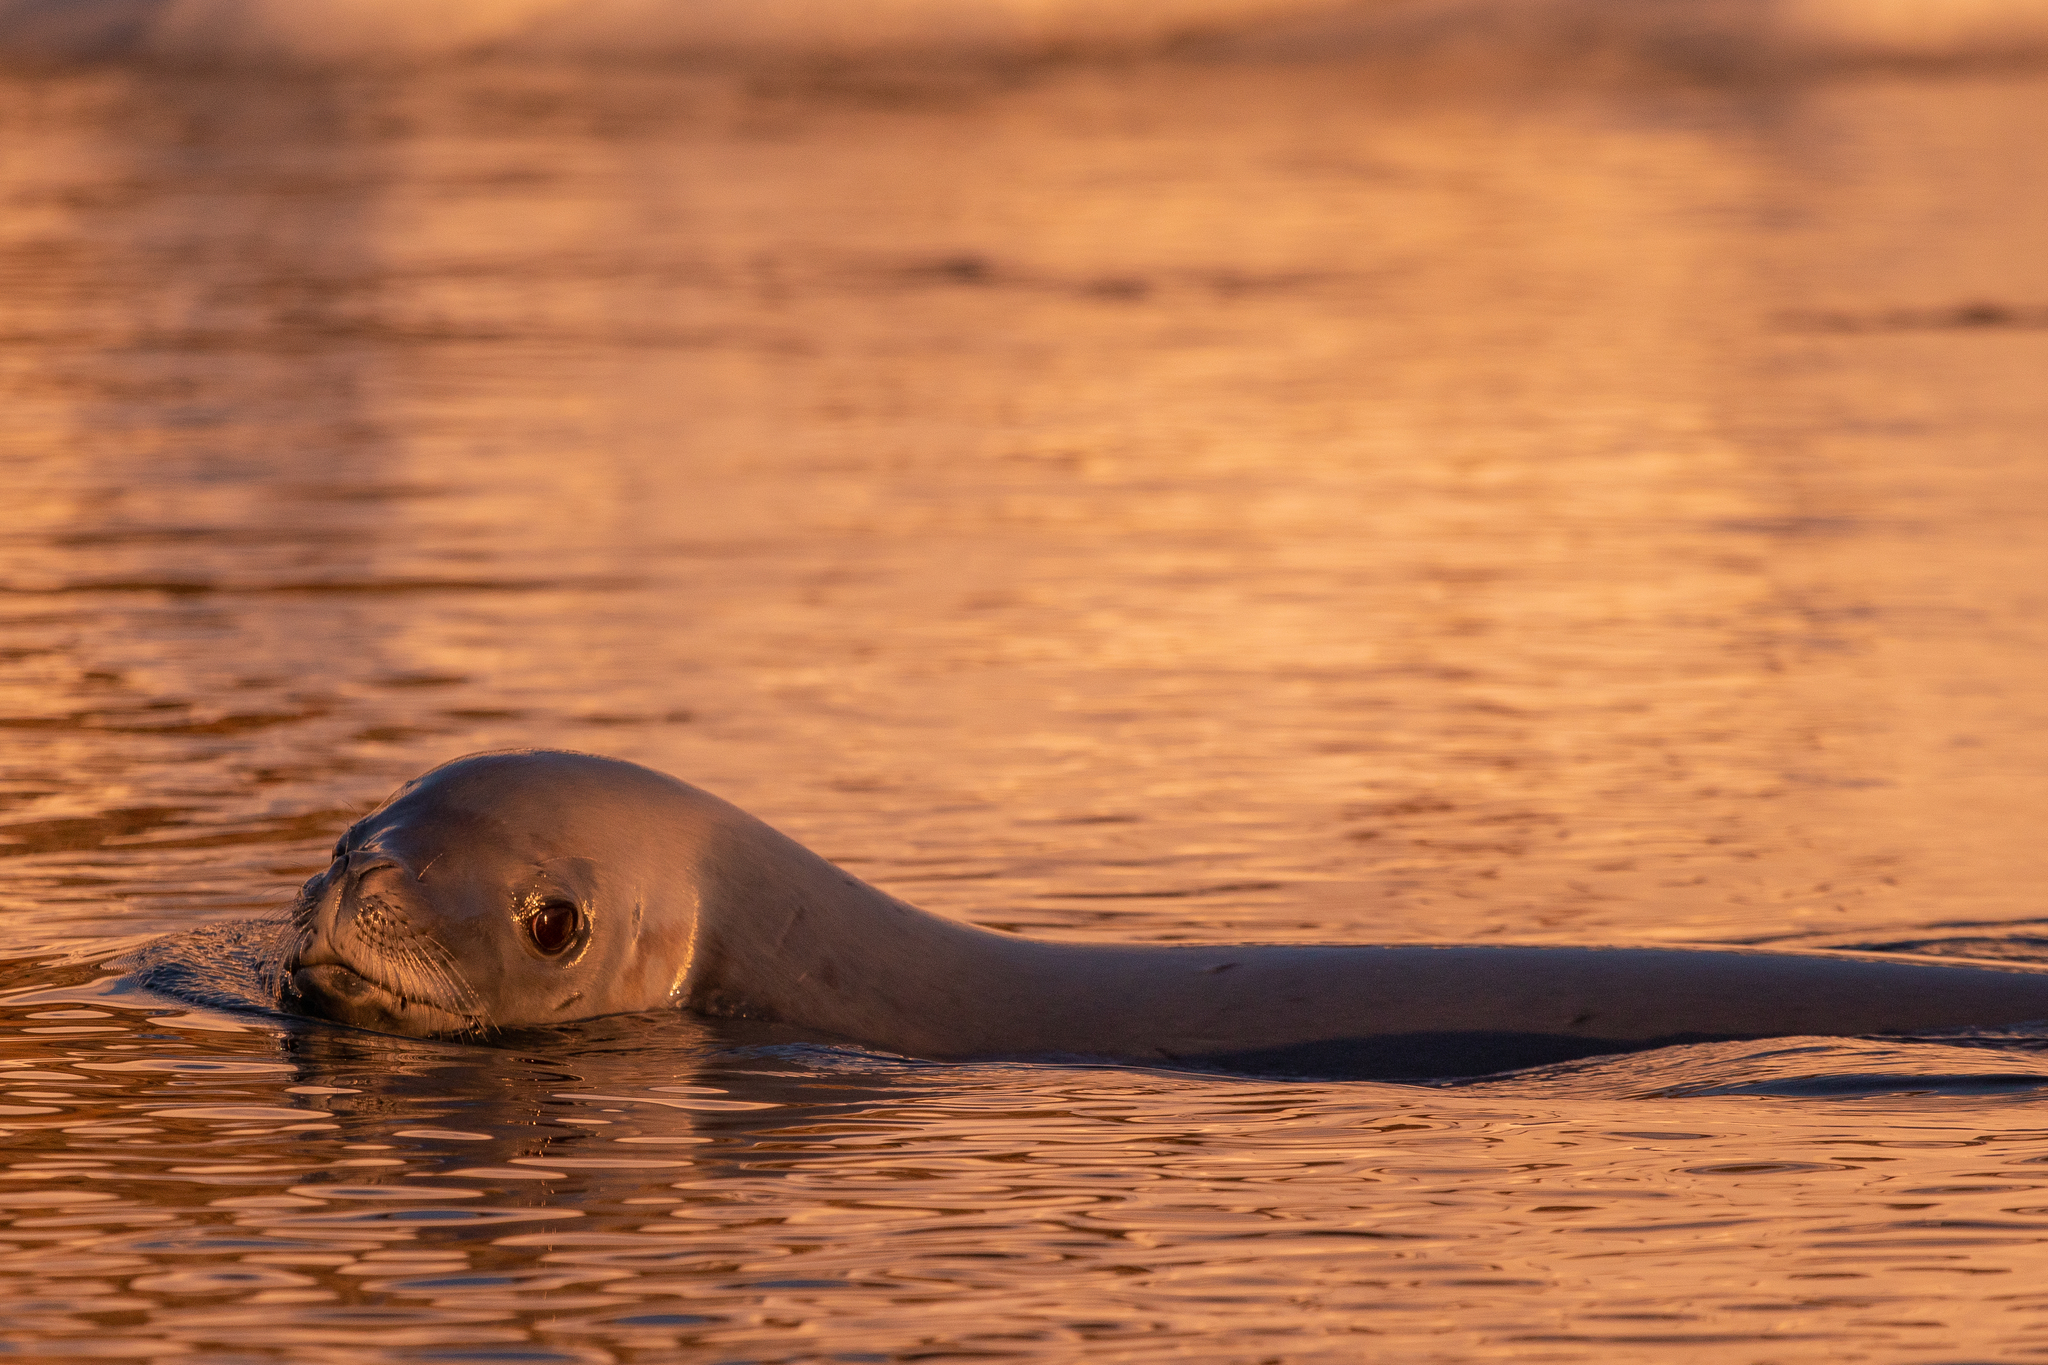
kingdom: Animalia
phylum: Chordata
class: Mammalia
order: Carnivora
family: Phocidae
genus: Hydrurga
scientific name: Hydrurga leptonyx
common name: Leopard seal
